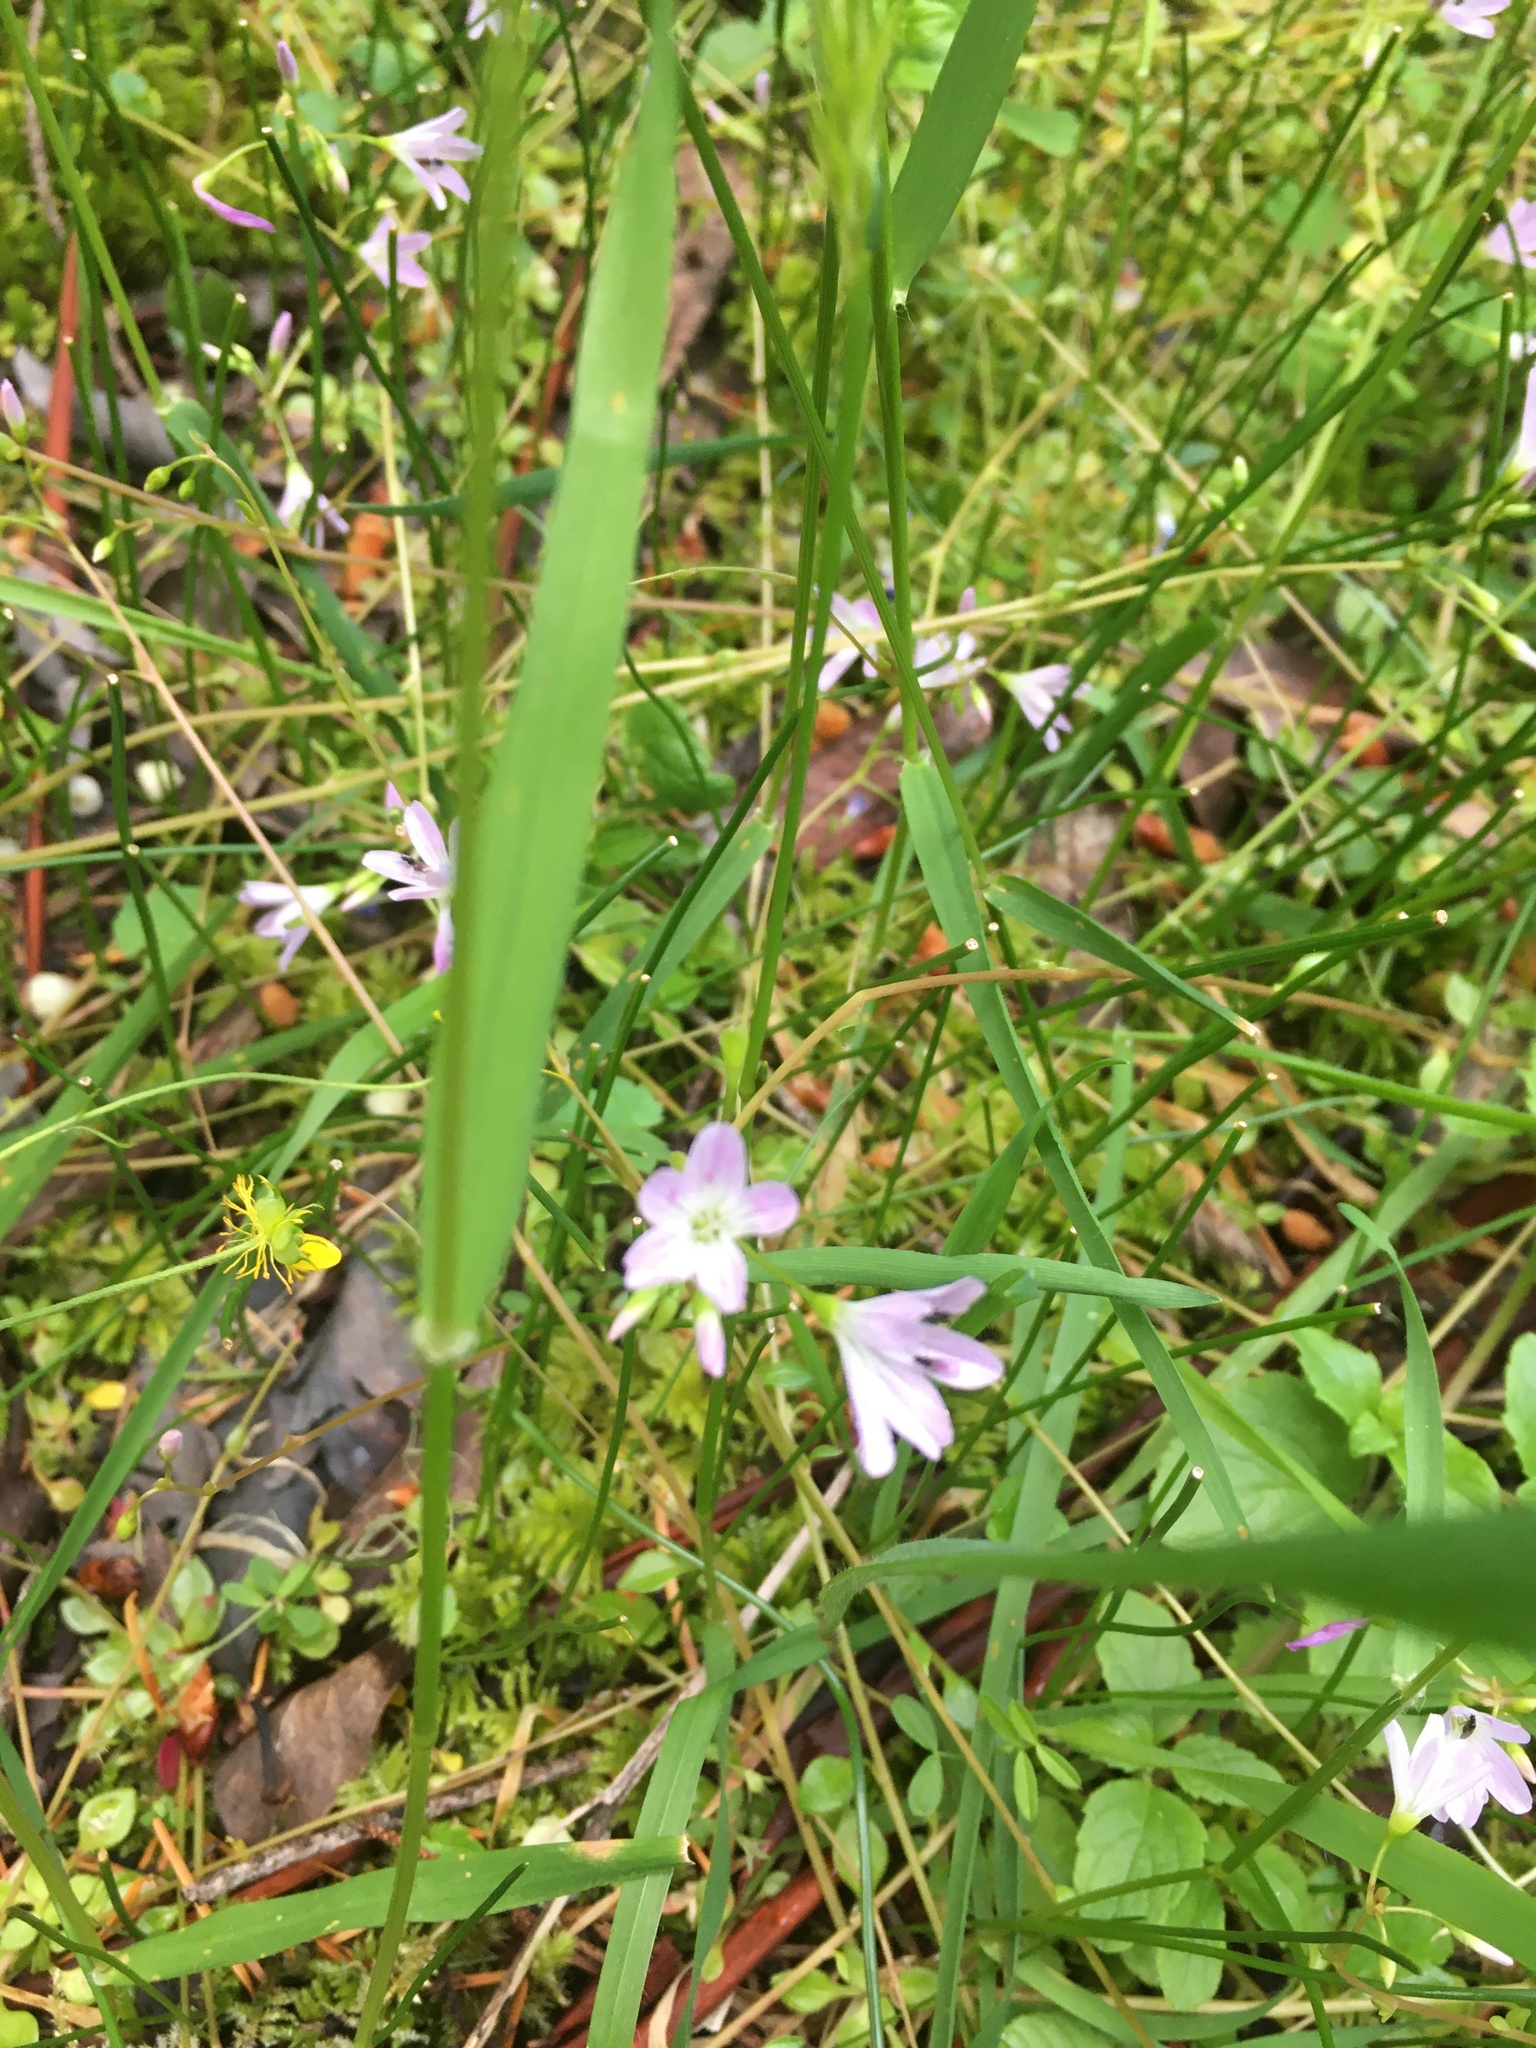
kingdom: Plantae
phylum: Tracheophyta
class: Magnoliopsida
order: Caryophyllales
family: Montiaceae
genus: Montia
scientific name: Montia parvifolia
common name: Small-leaved blinks
